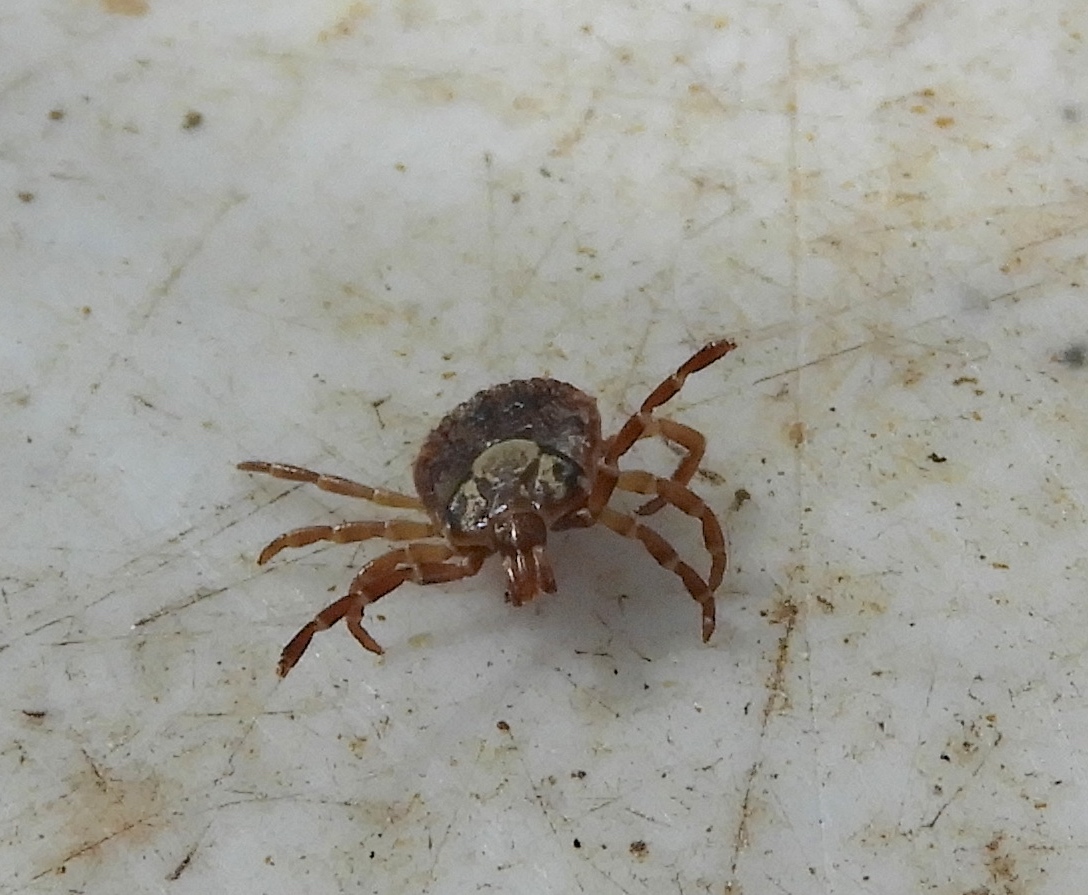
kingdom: Animalia
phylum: Arthropoda
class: Arachnida
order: Ixodida
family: Ixodidae
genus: Amblyomma
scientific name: Amblyomma cajennense
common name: Cayenne tick
